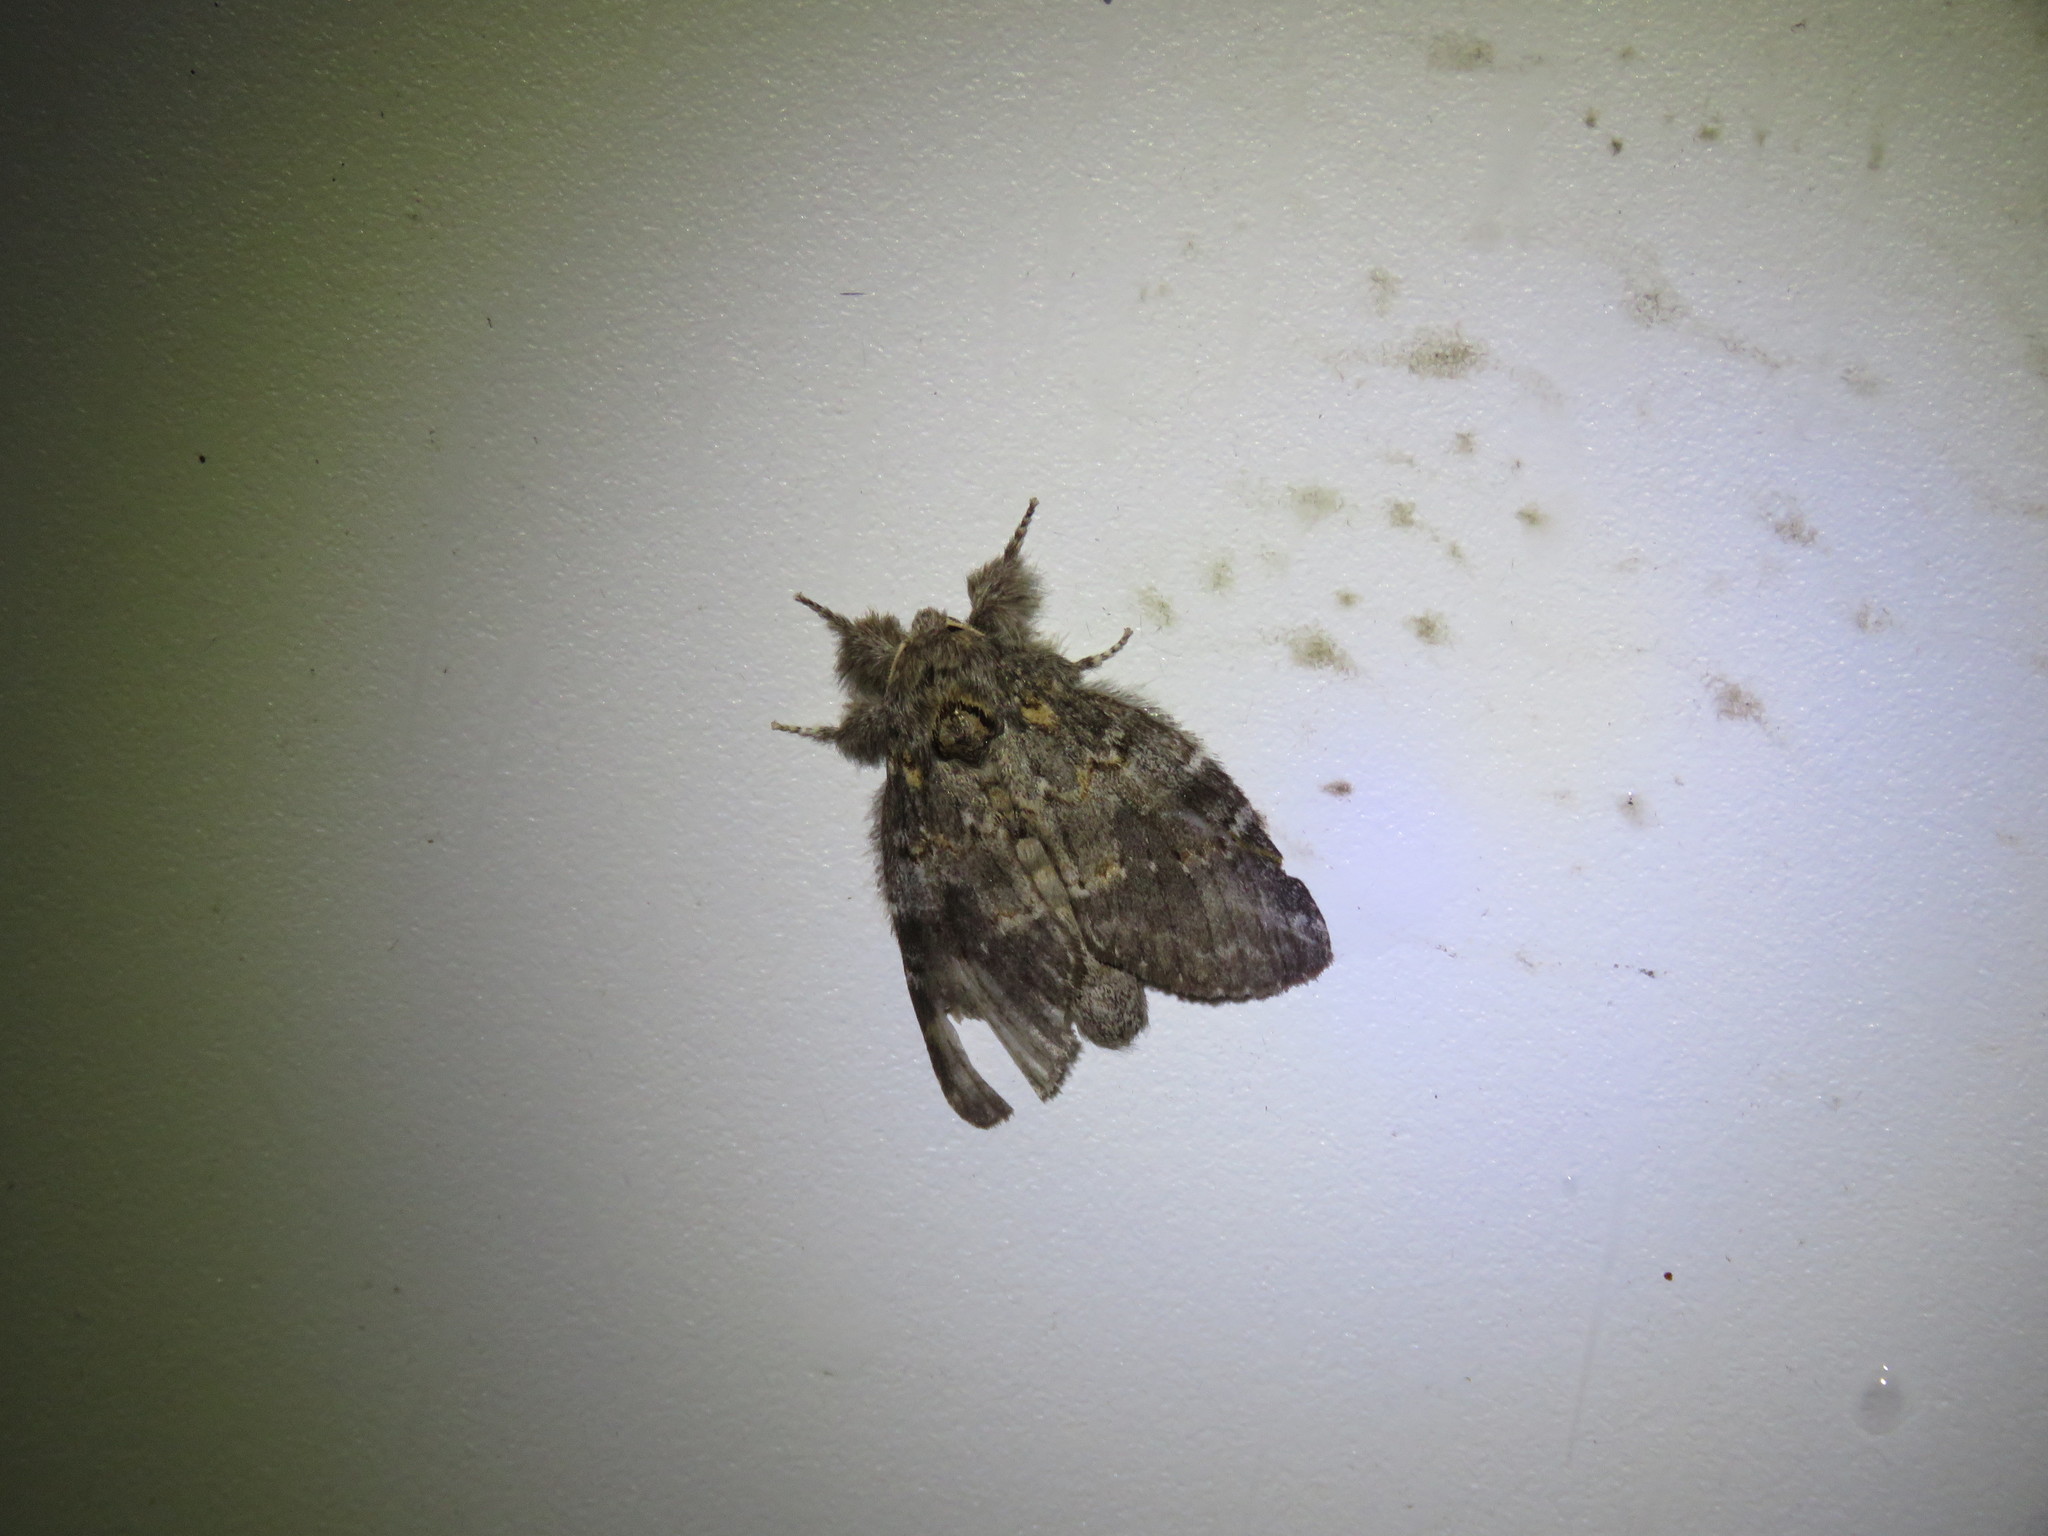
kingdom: Animalia
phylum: Arthropoda
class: Insecta
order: Lepidoptera
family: Notodontidae
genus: Peridea
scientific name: Peridea angulosa
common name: Angulose prominent
